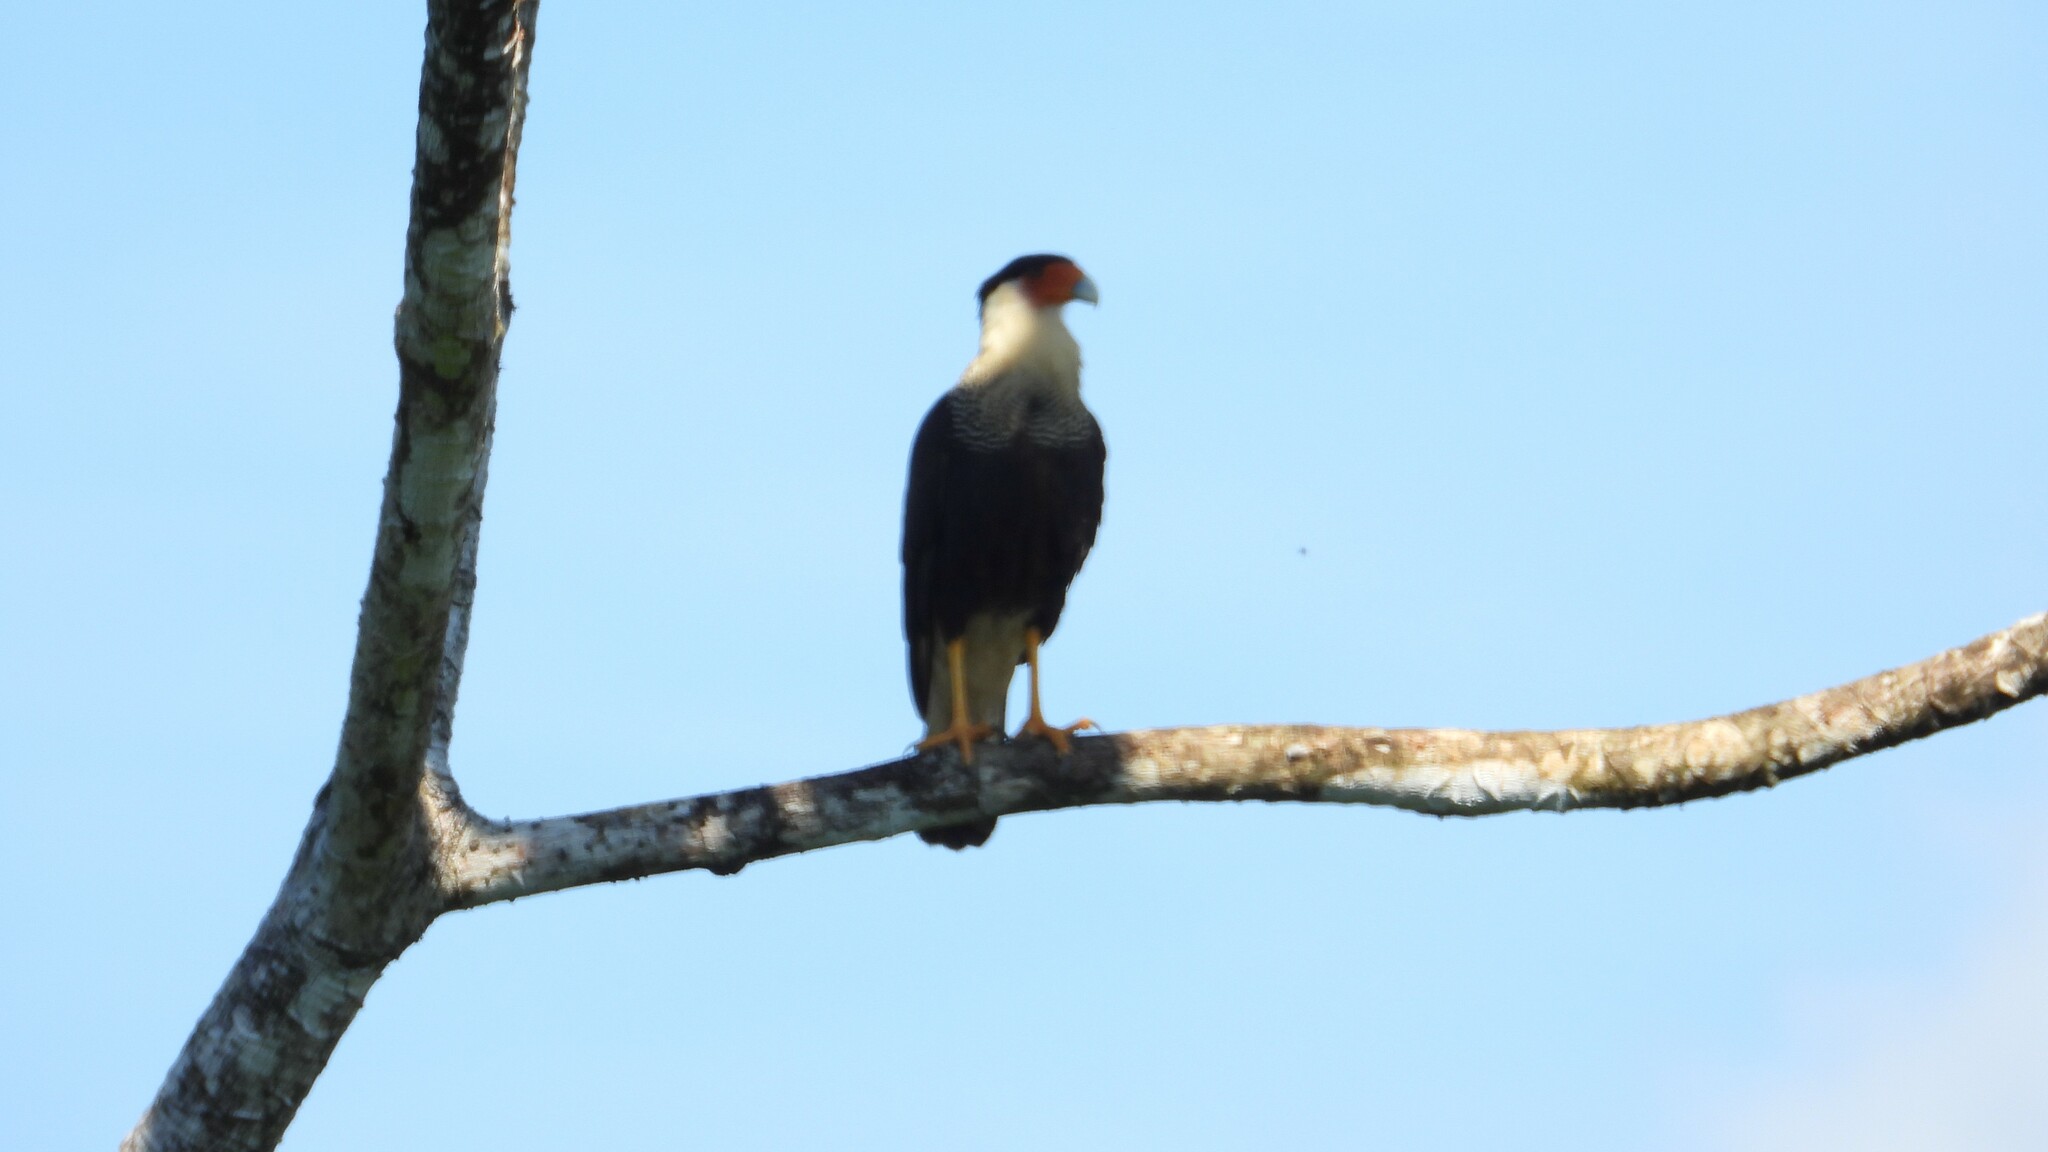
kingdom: Animalia
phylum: Chordata
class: Aves
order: Falconiformes
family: Falconidae
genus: Caracara
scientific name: Caracara plancus
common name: Southern caracara
